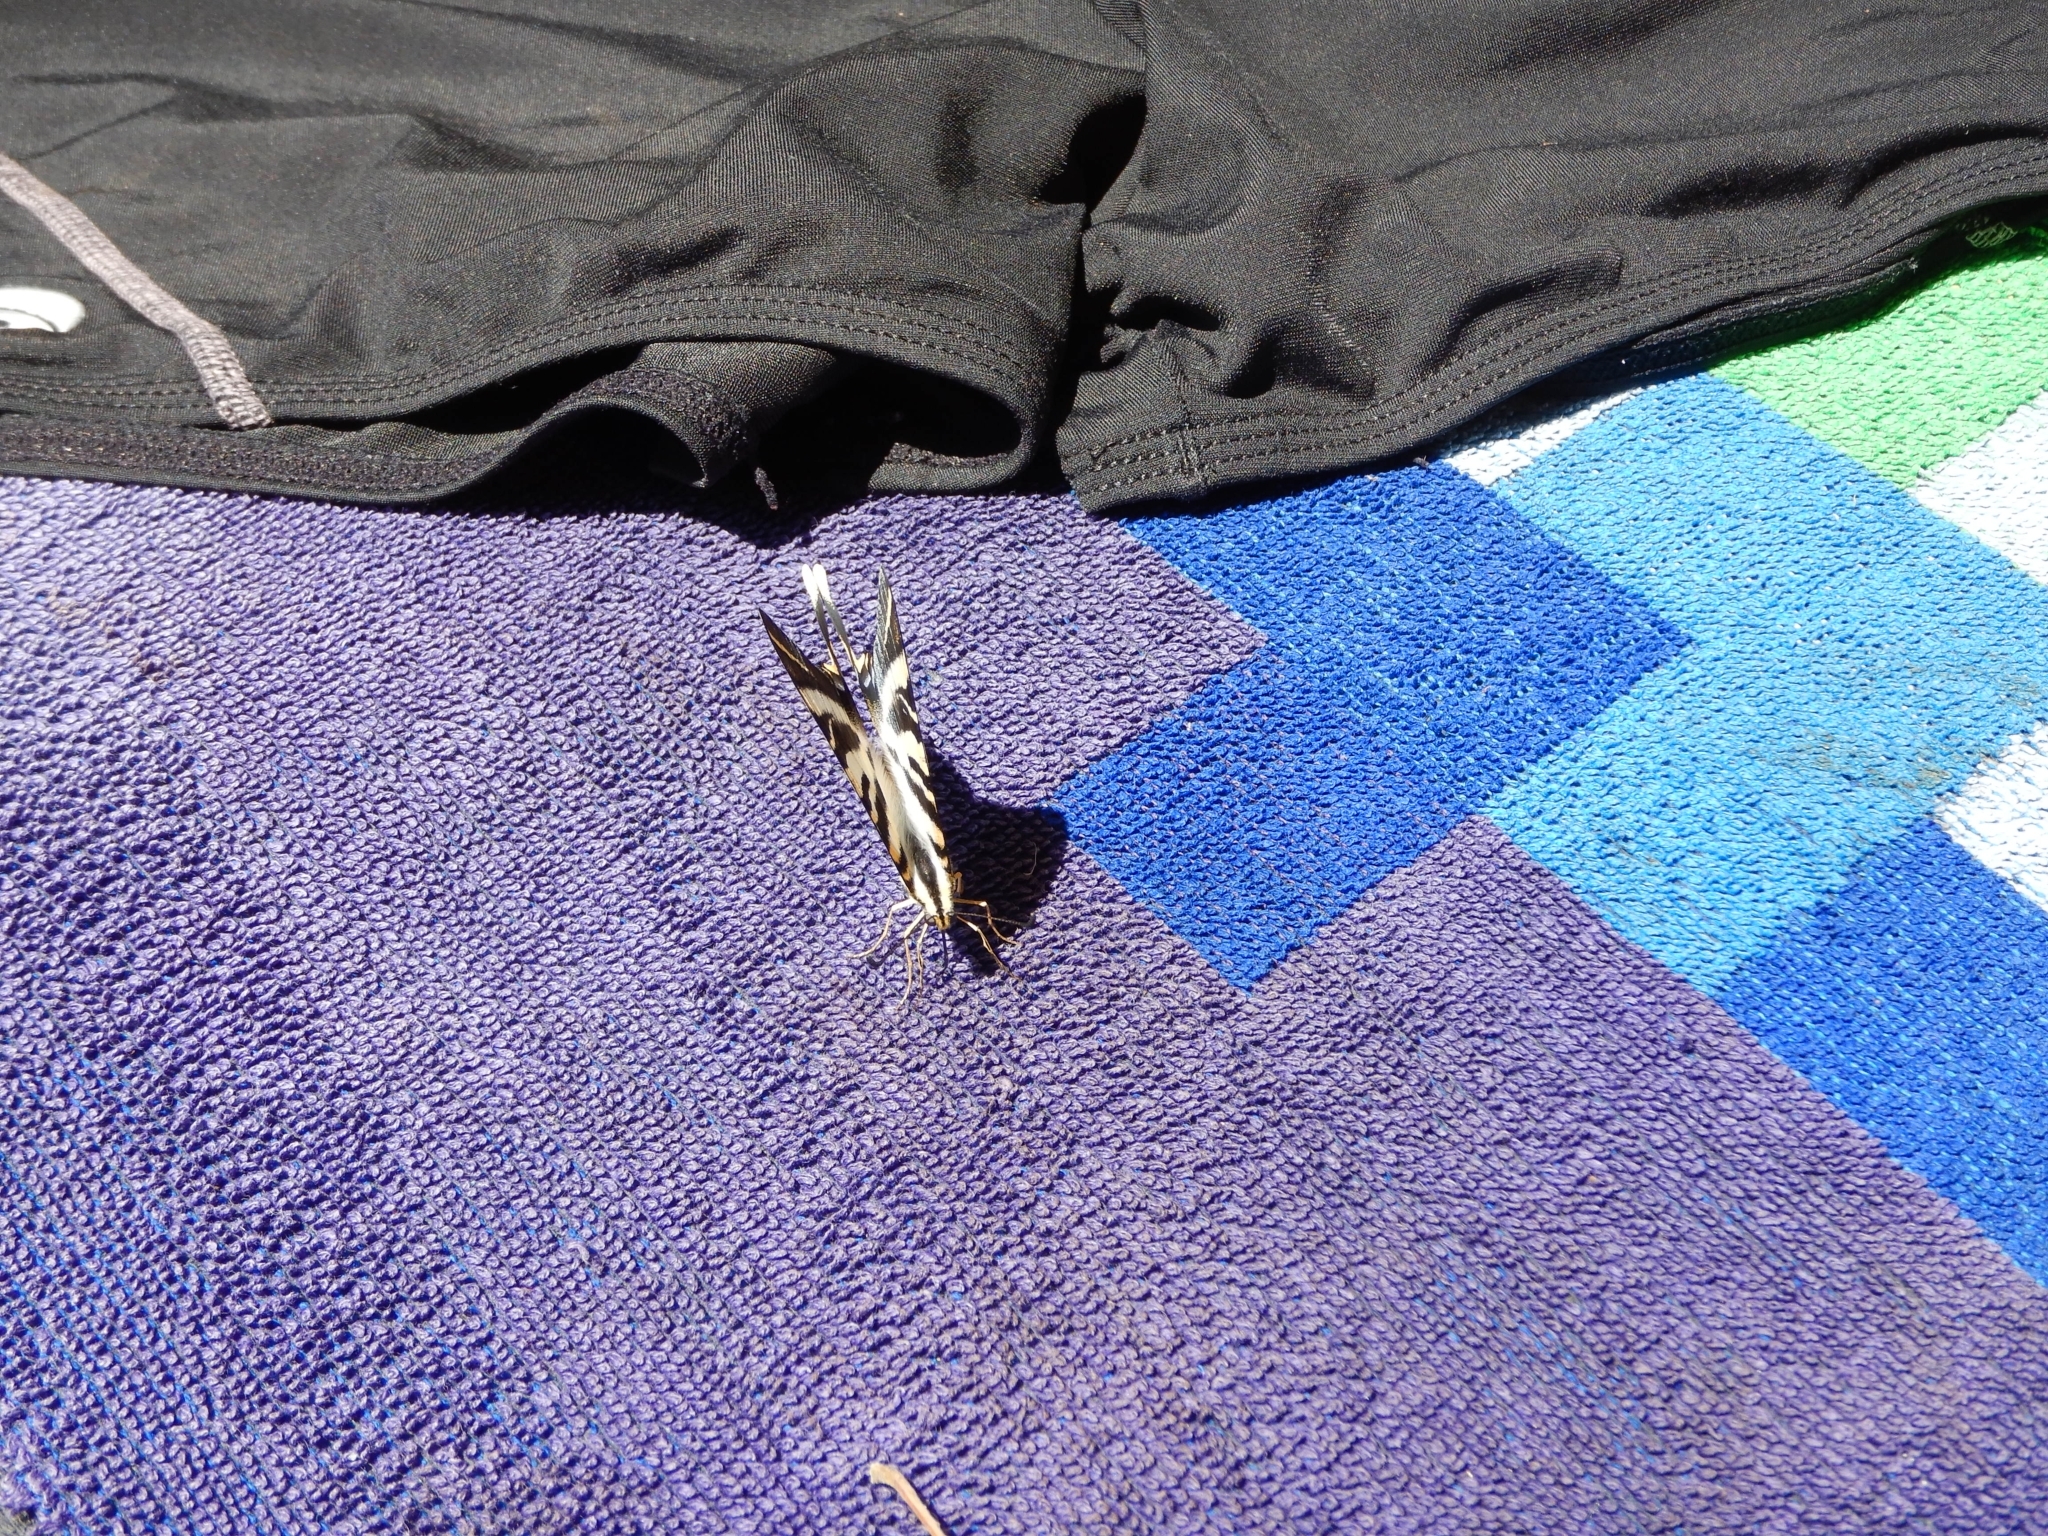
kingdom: Animalia
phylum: Arthropoda
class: Insecta
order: Lepidoptera
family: Papilionidae
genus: Iphiclides
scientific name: Iphiclides feisthamelii
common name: Iberian scarce swallowtail
